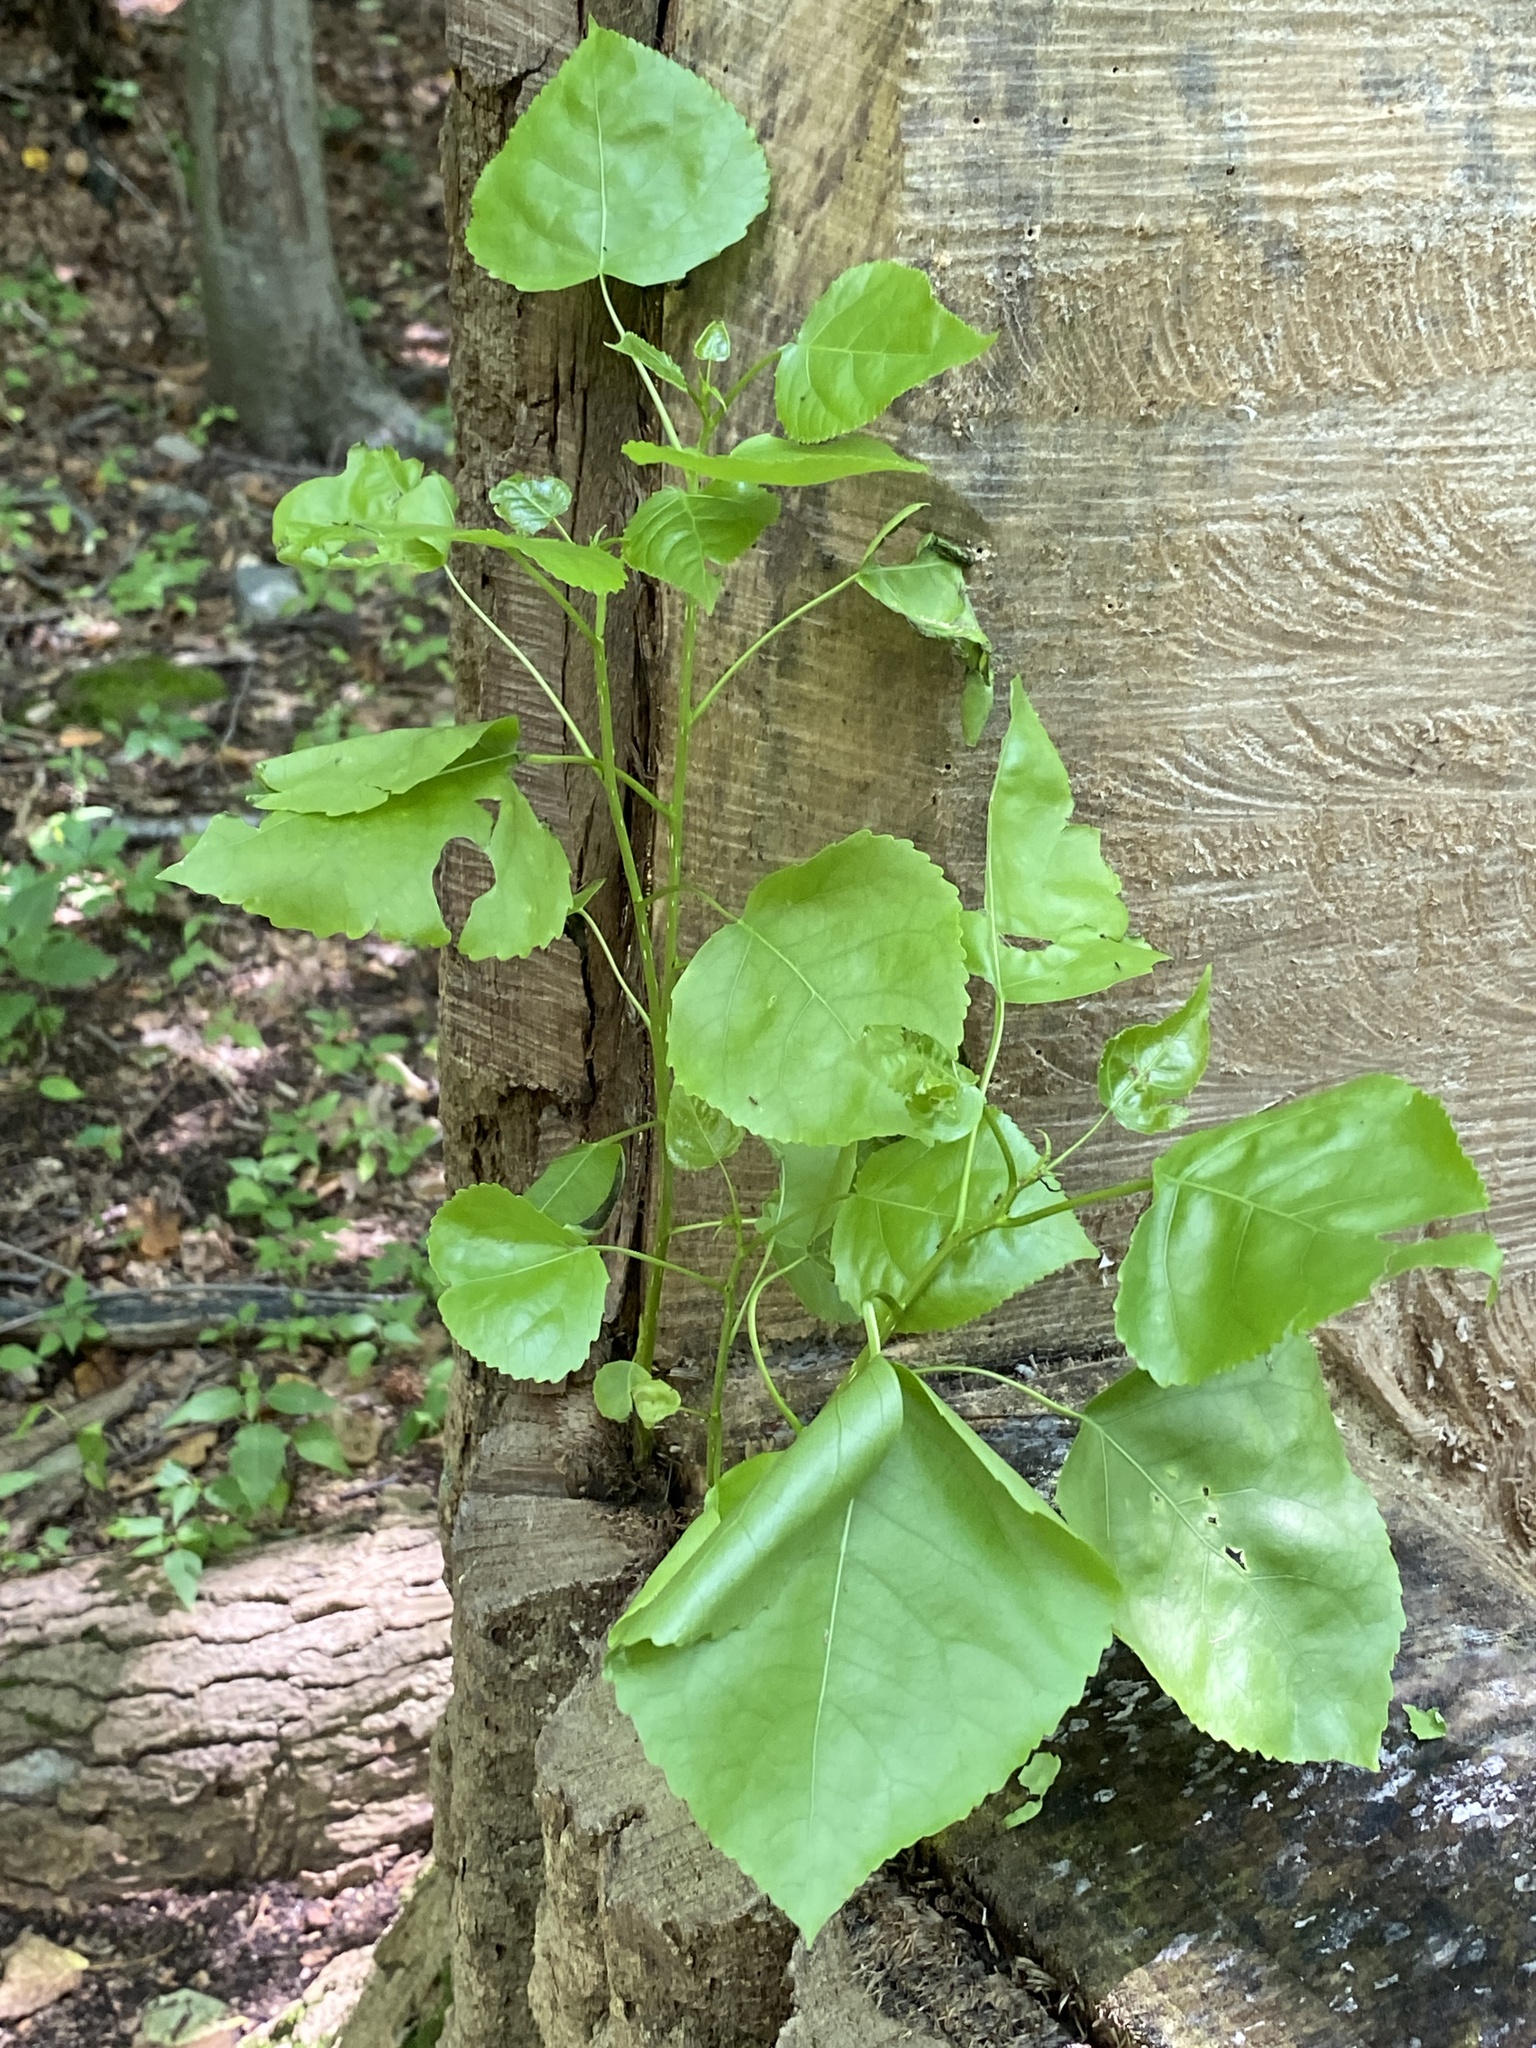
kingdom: Plantae
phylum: Tracheophyta
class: Magnoliopsida
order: Malpighiales
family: Salicaceae
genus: Populus
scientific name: Populus deltoides
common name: Eastern cottonwood
